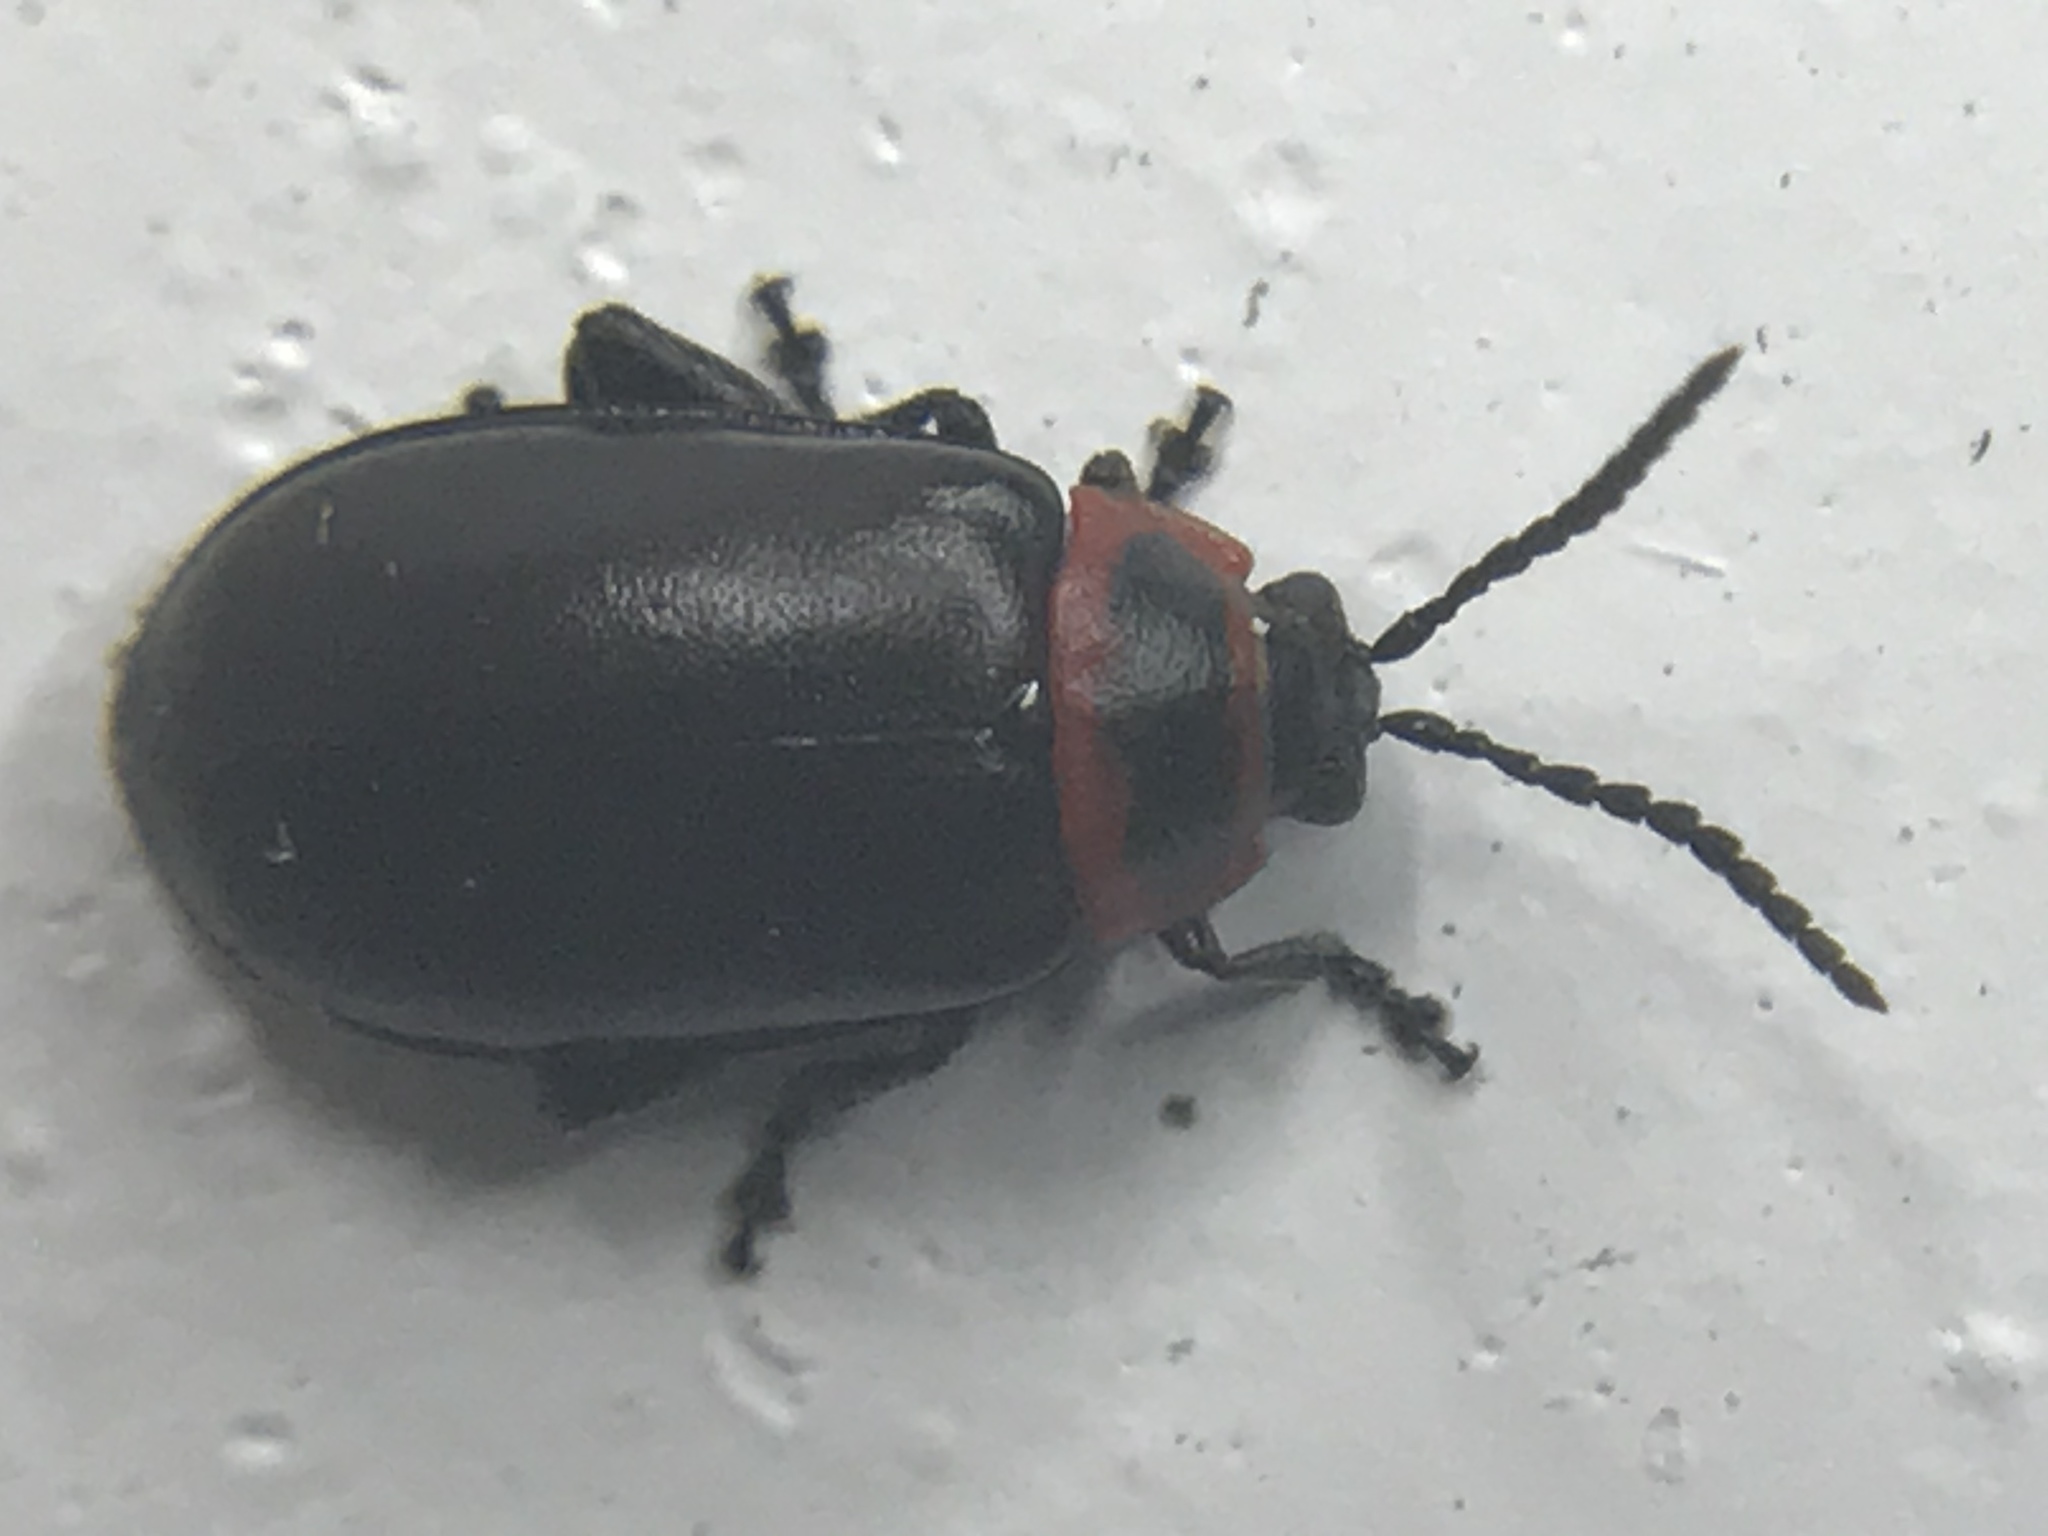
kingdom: Animalia
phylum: Arthropoda
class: Insecta
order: Coleoptera
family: Chrysomelidae
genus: Kuschelina
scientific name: Kuschelina vians
